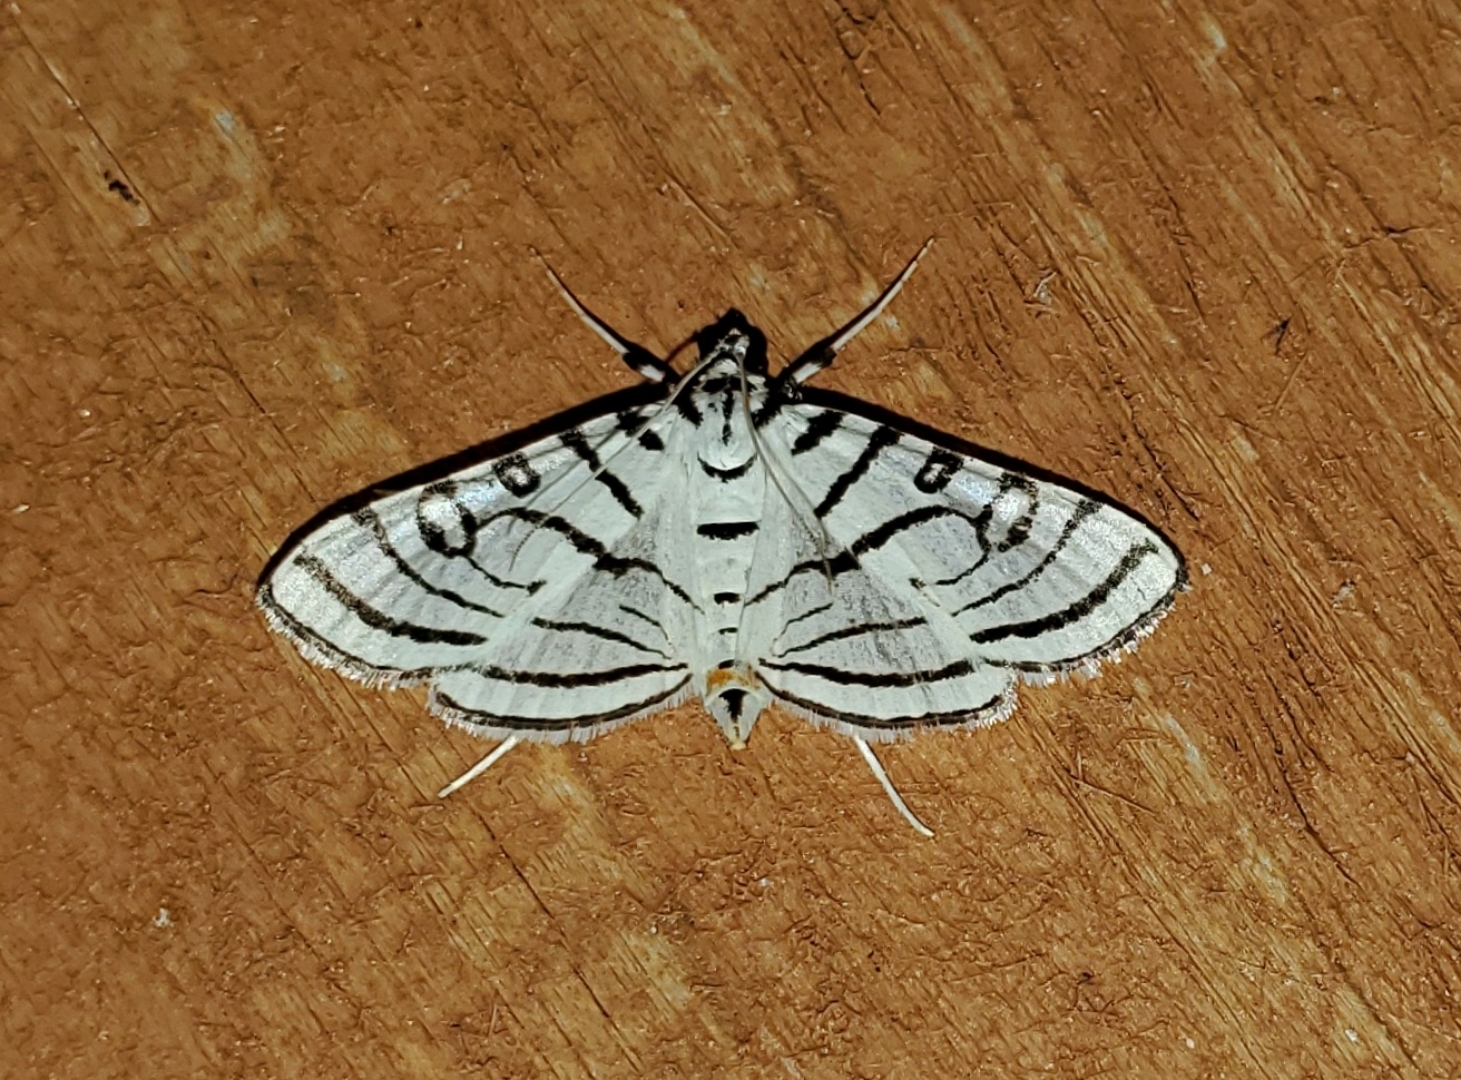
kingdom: Animalia
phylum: Arthropoda
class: Insecta
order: Lepidoptera
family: Crambidae
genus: Conchylodes
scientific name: Conchylodes concinnalis
